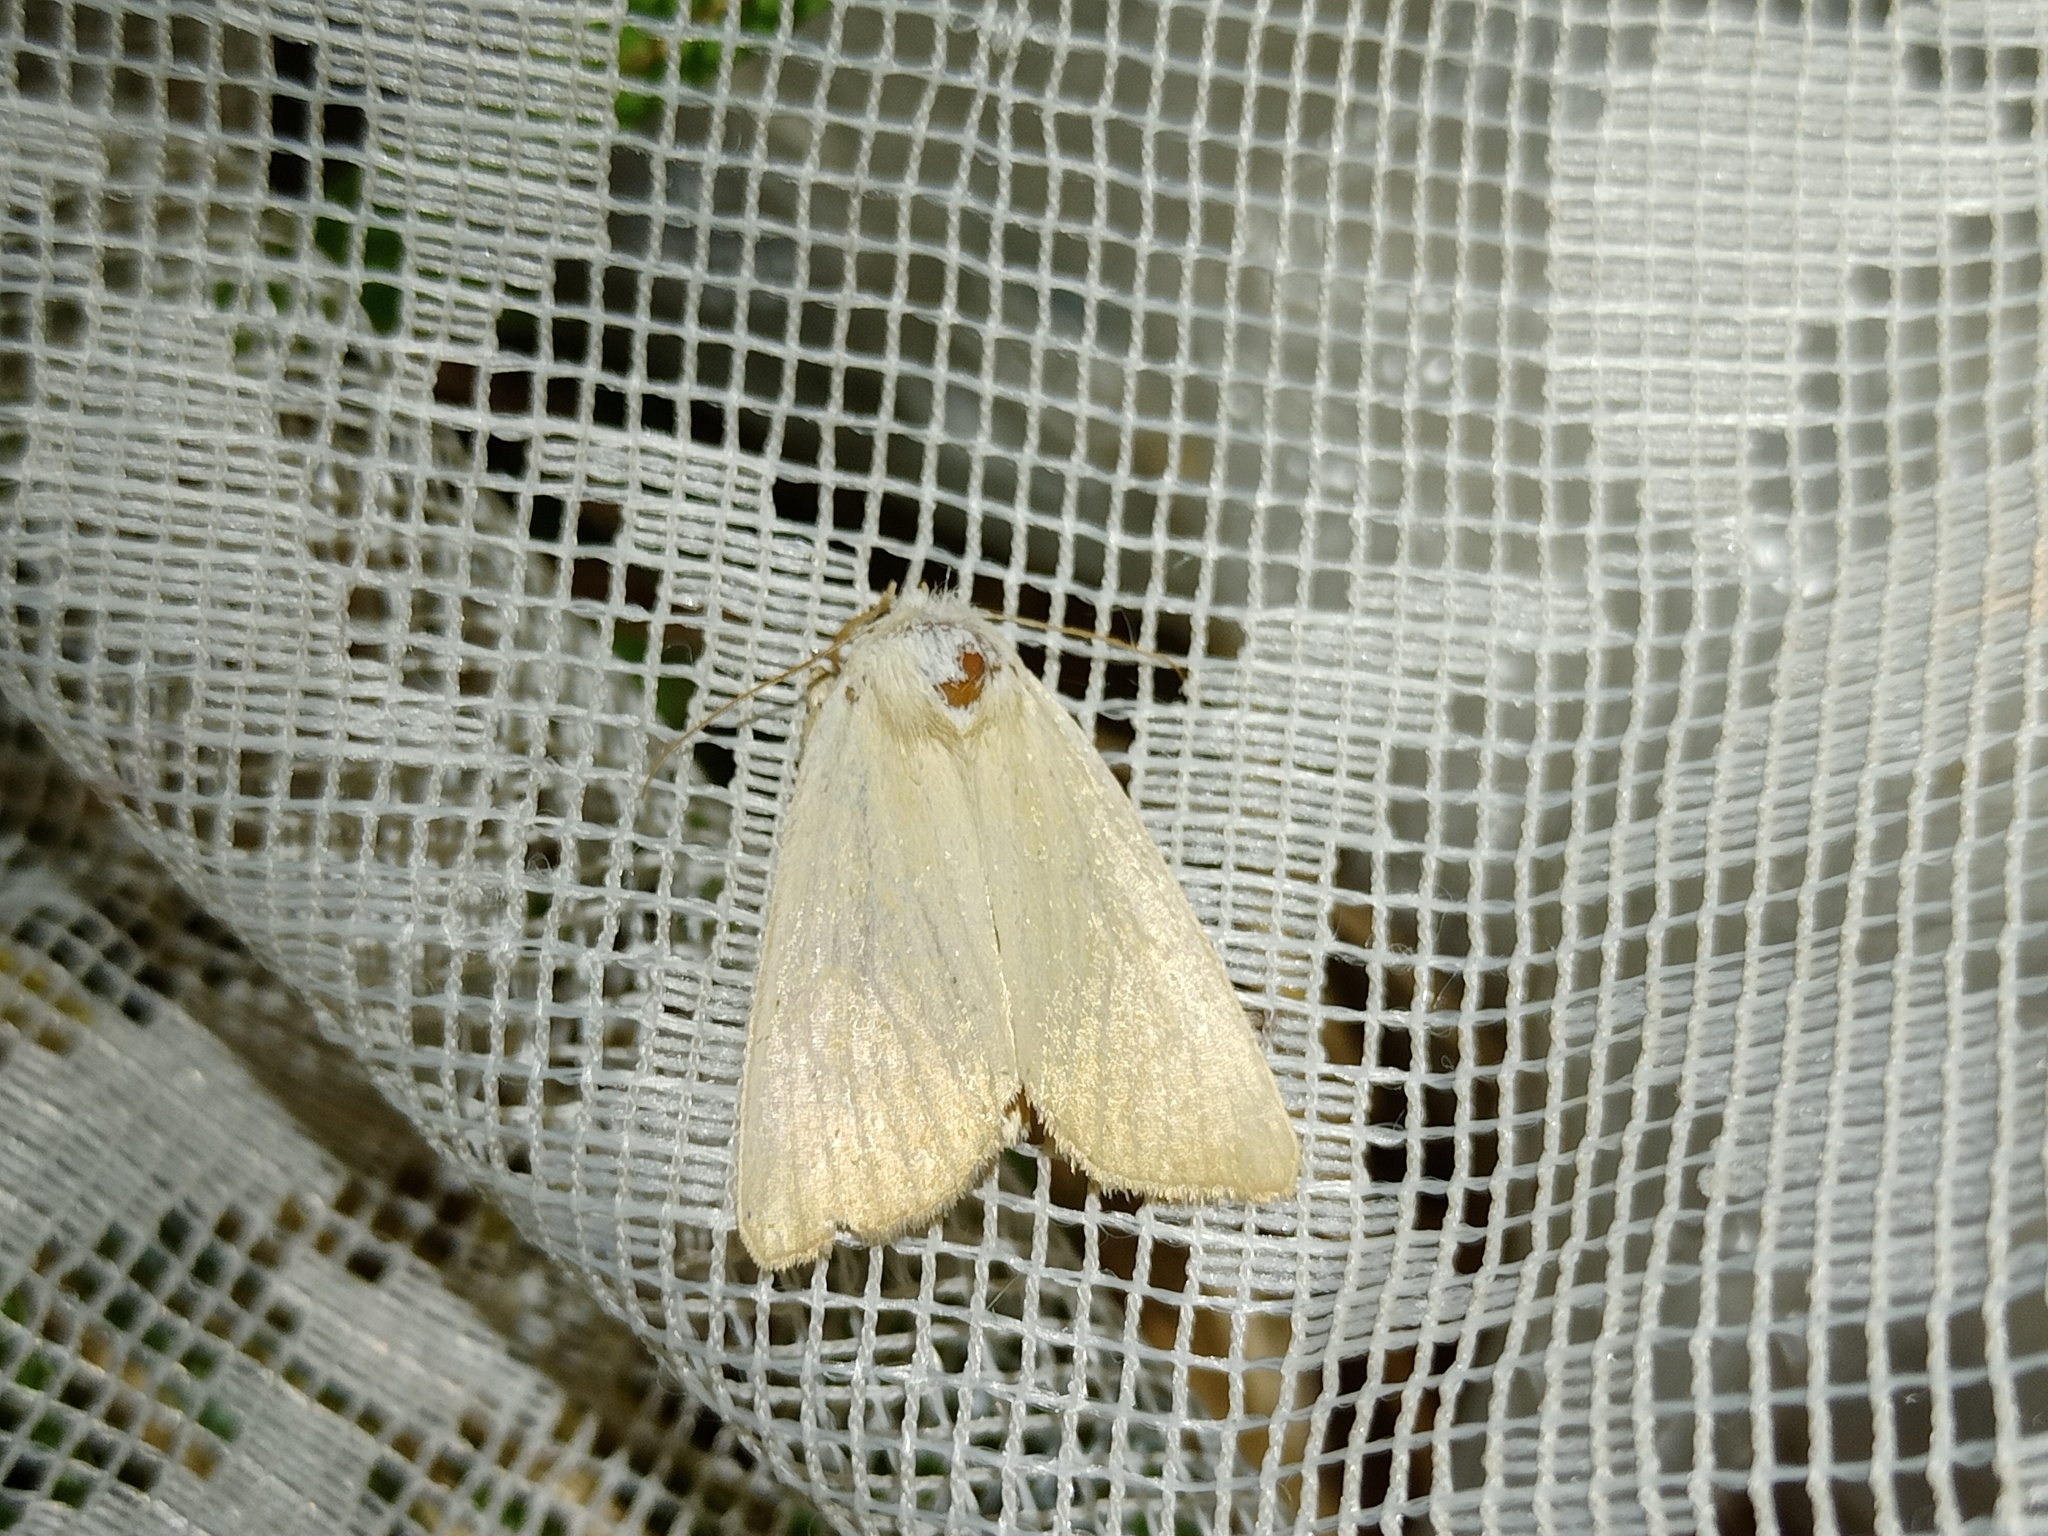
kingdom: Animalia
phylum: Arthropoda
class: Insecta
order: Lepidoptera
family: Noctuidae
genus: Arenostola
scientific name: Arenostola phragmitidis
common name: Fen wainscot
